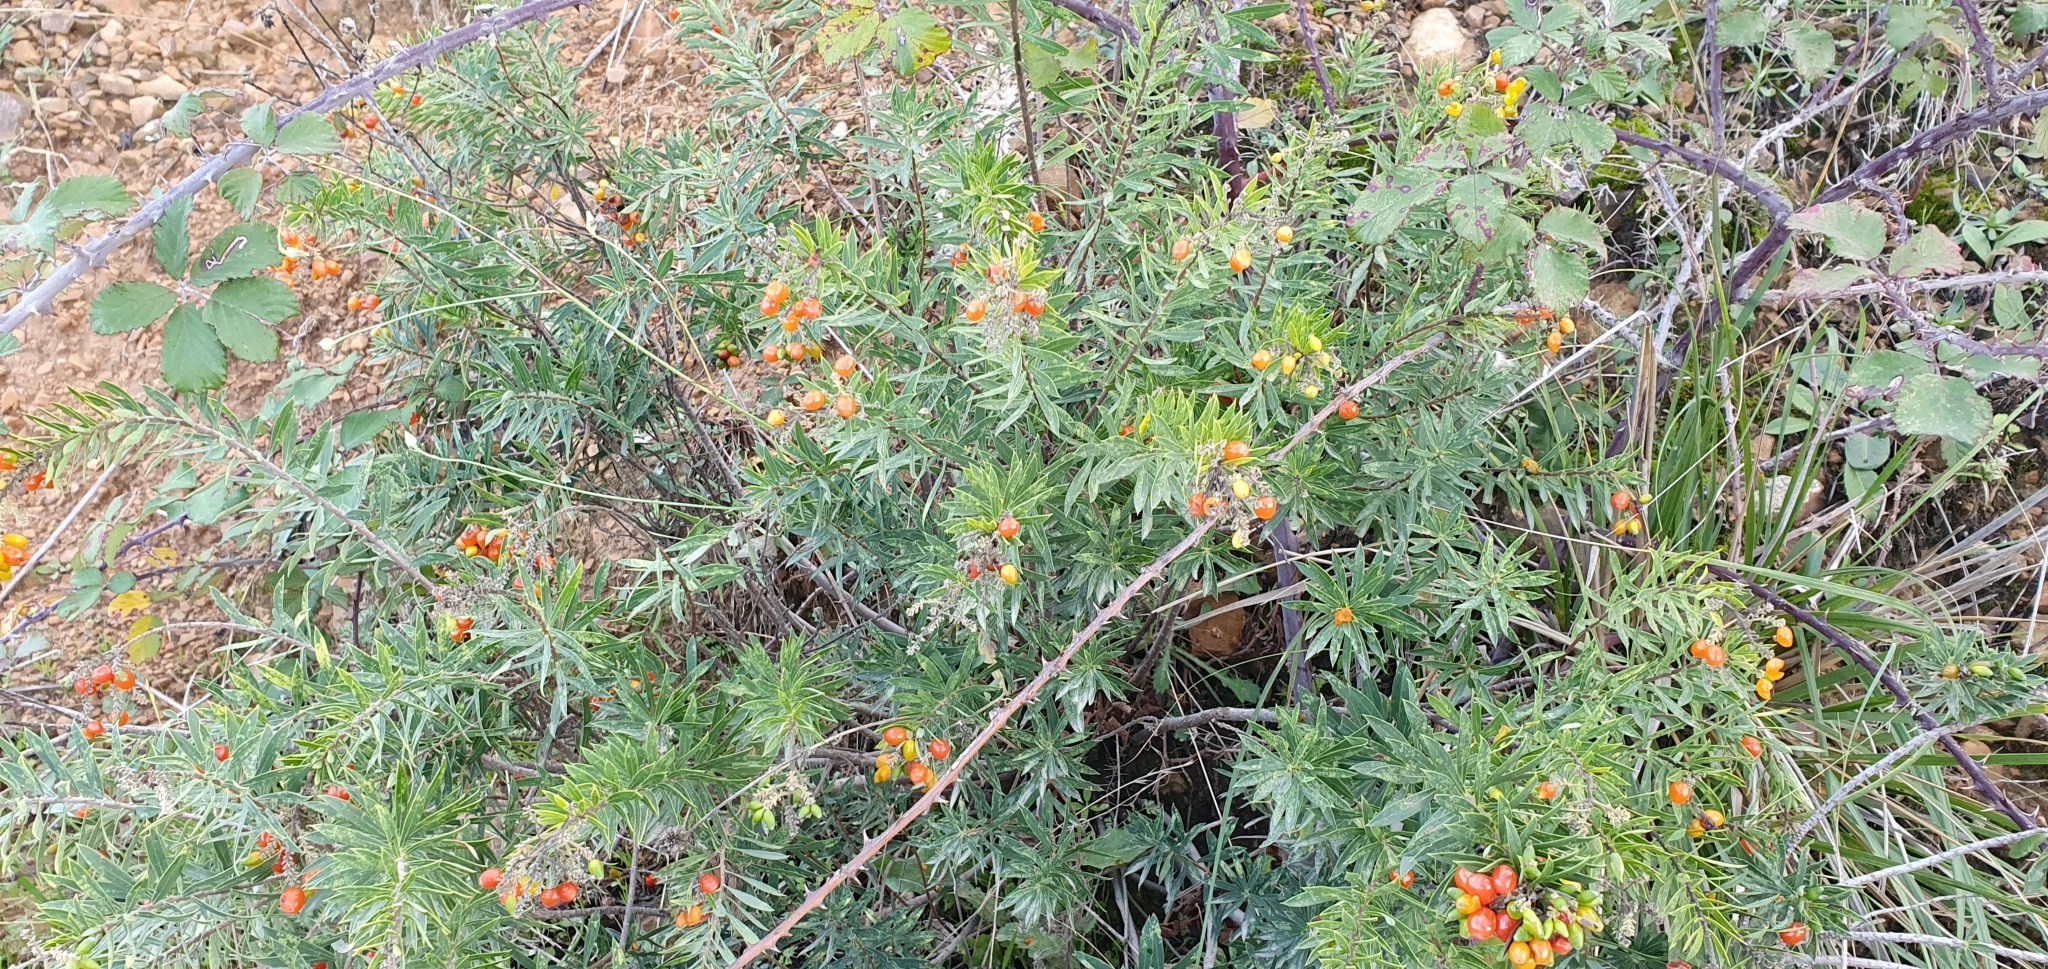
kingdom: Plantae
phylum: Tracheophyta
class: Magnoliopsida
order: Malvales
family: Thymelaeaceae
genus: Daphne
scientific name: Daphne gnidium
